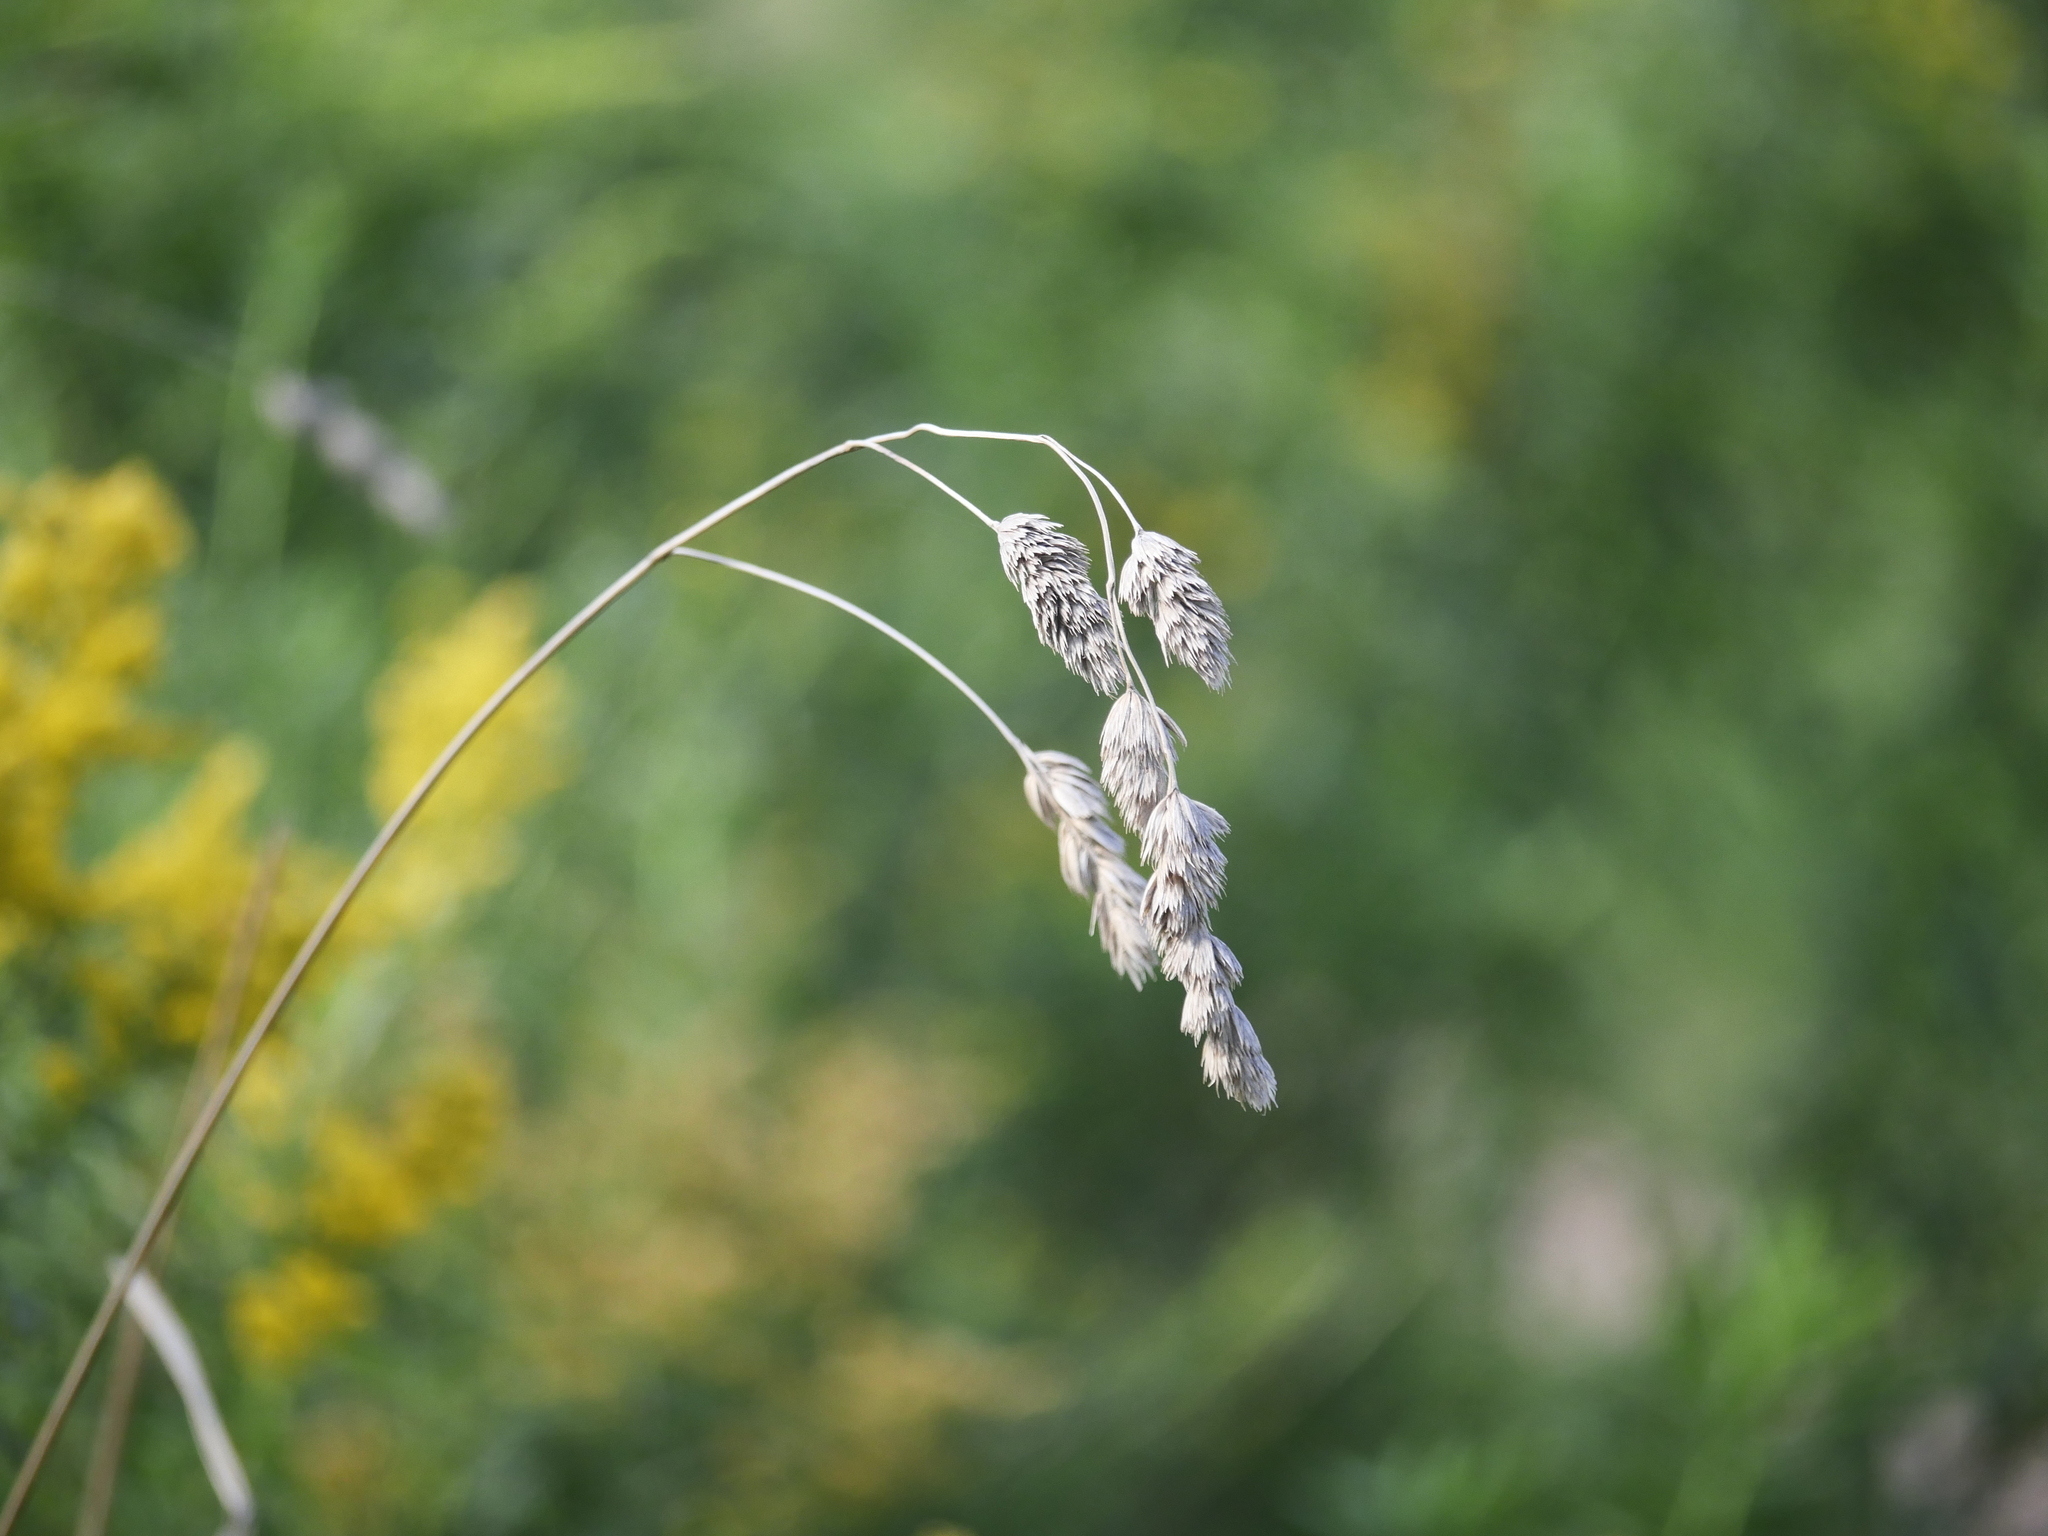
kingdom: Plantae
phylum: Tracheophyta
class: Liliopsida
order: Poales
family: Poaceae
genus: Dactylis
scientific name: Dactylis glomerata
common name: Orchardgrass
